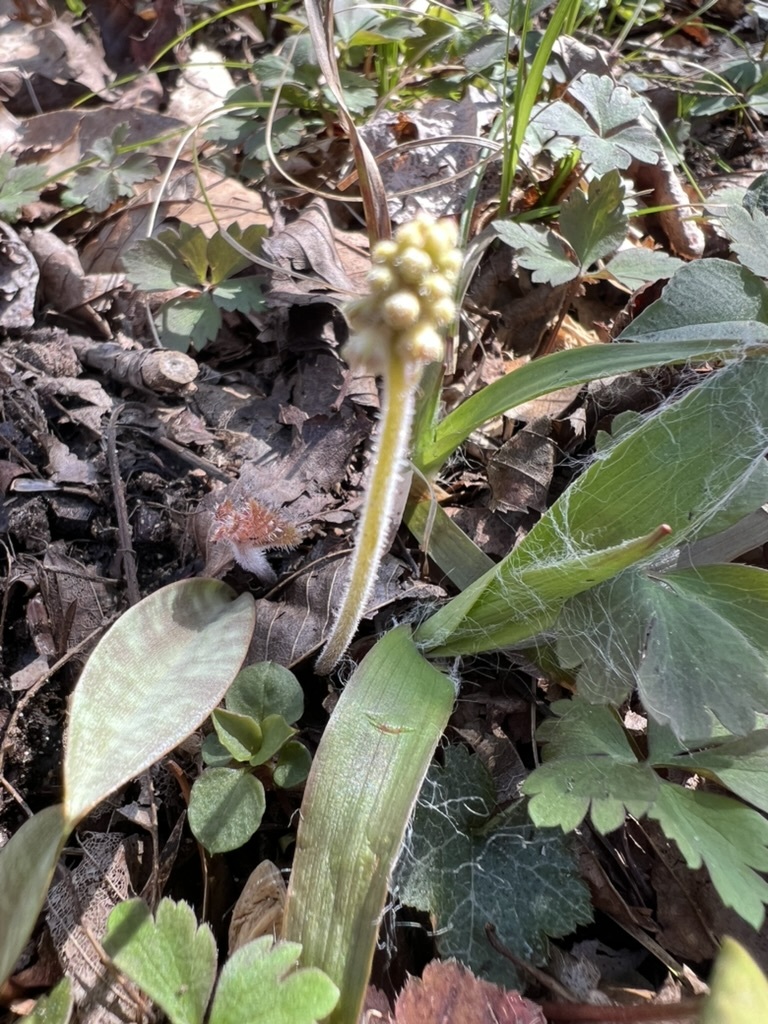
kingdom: Plantae
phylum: Tracheophyta
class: Magnoliopsida
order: Saxifragales
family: Saxifragaceae
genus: Tiarella
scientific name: Tiarella austrina
